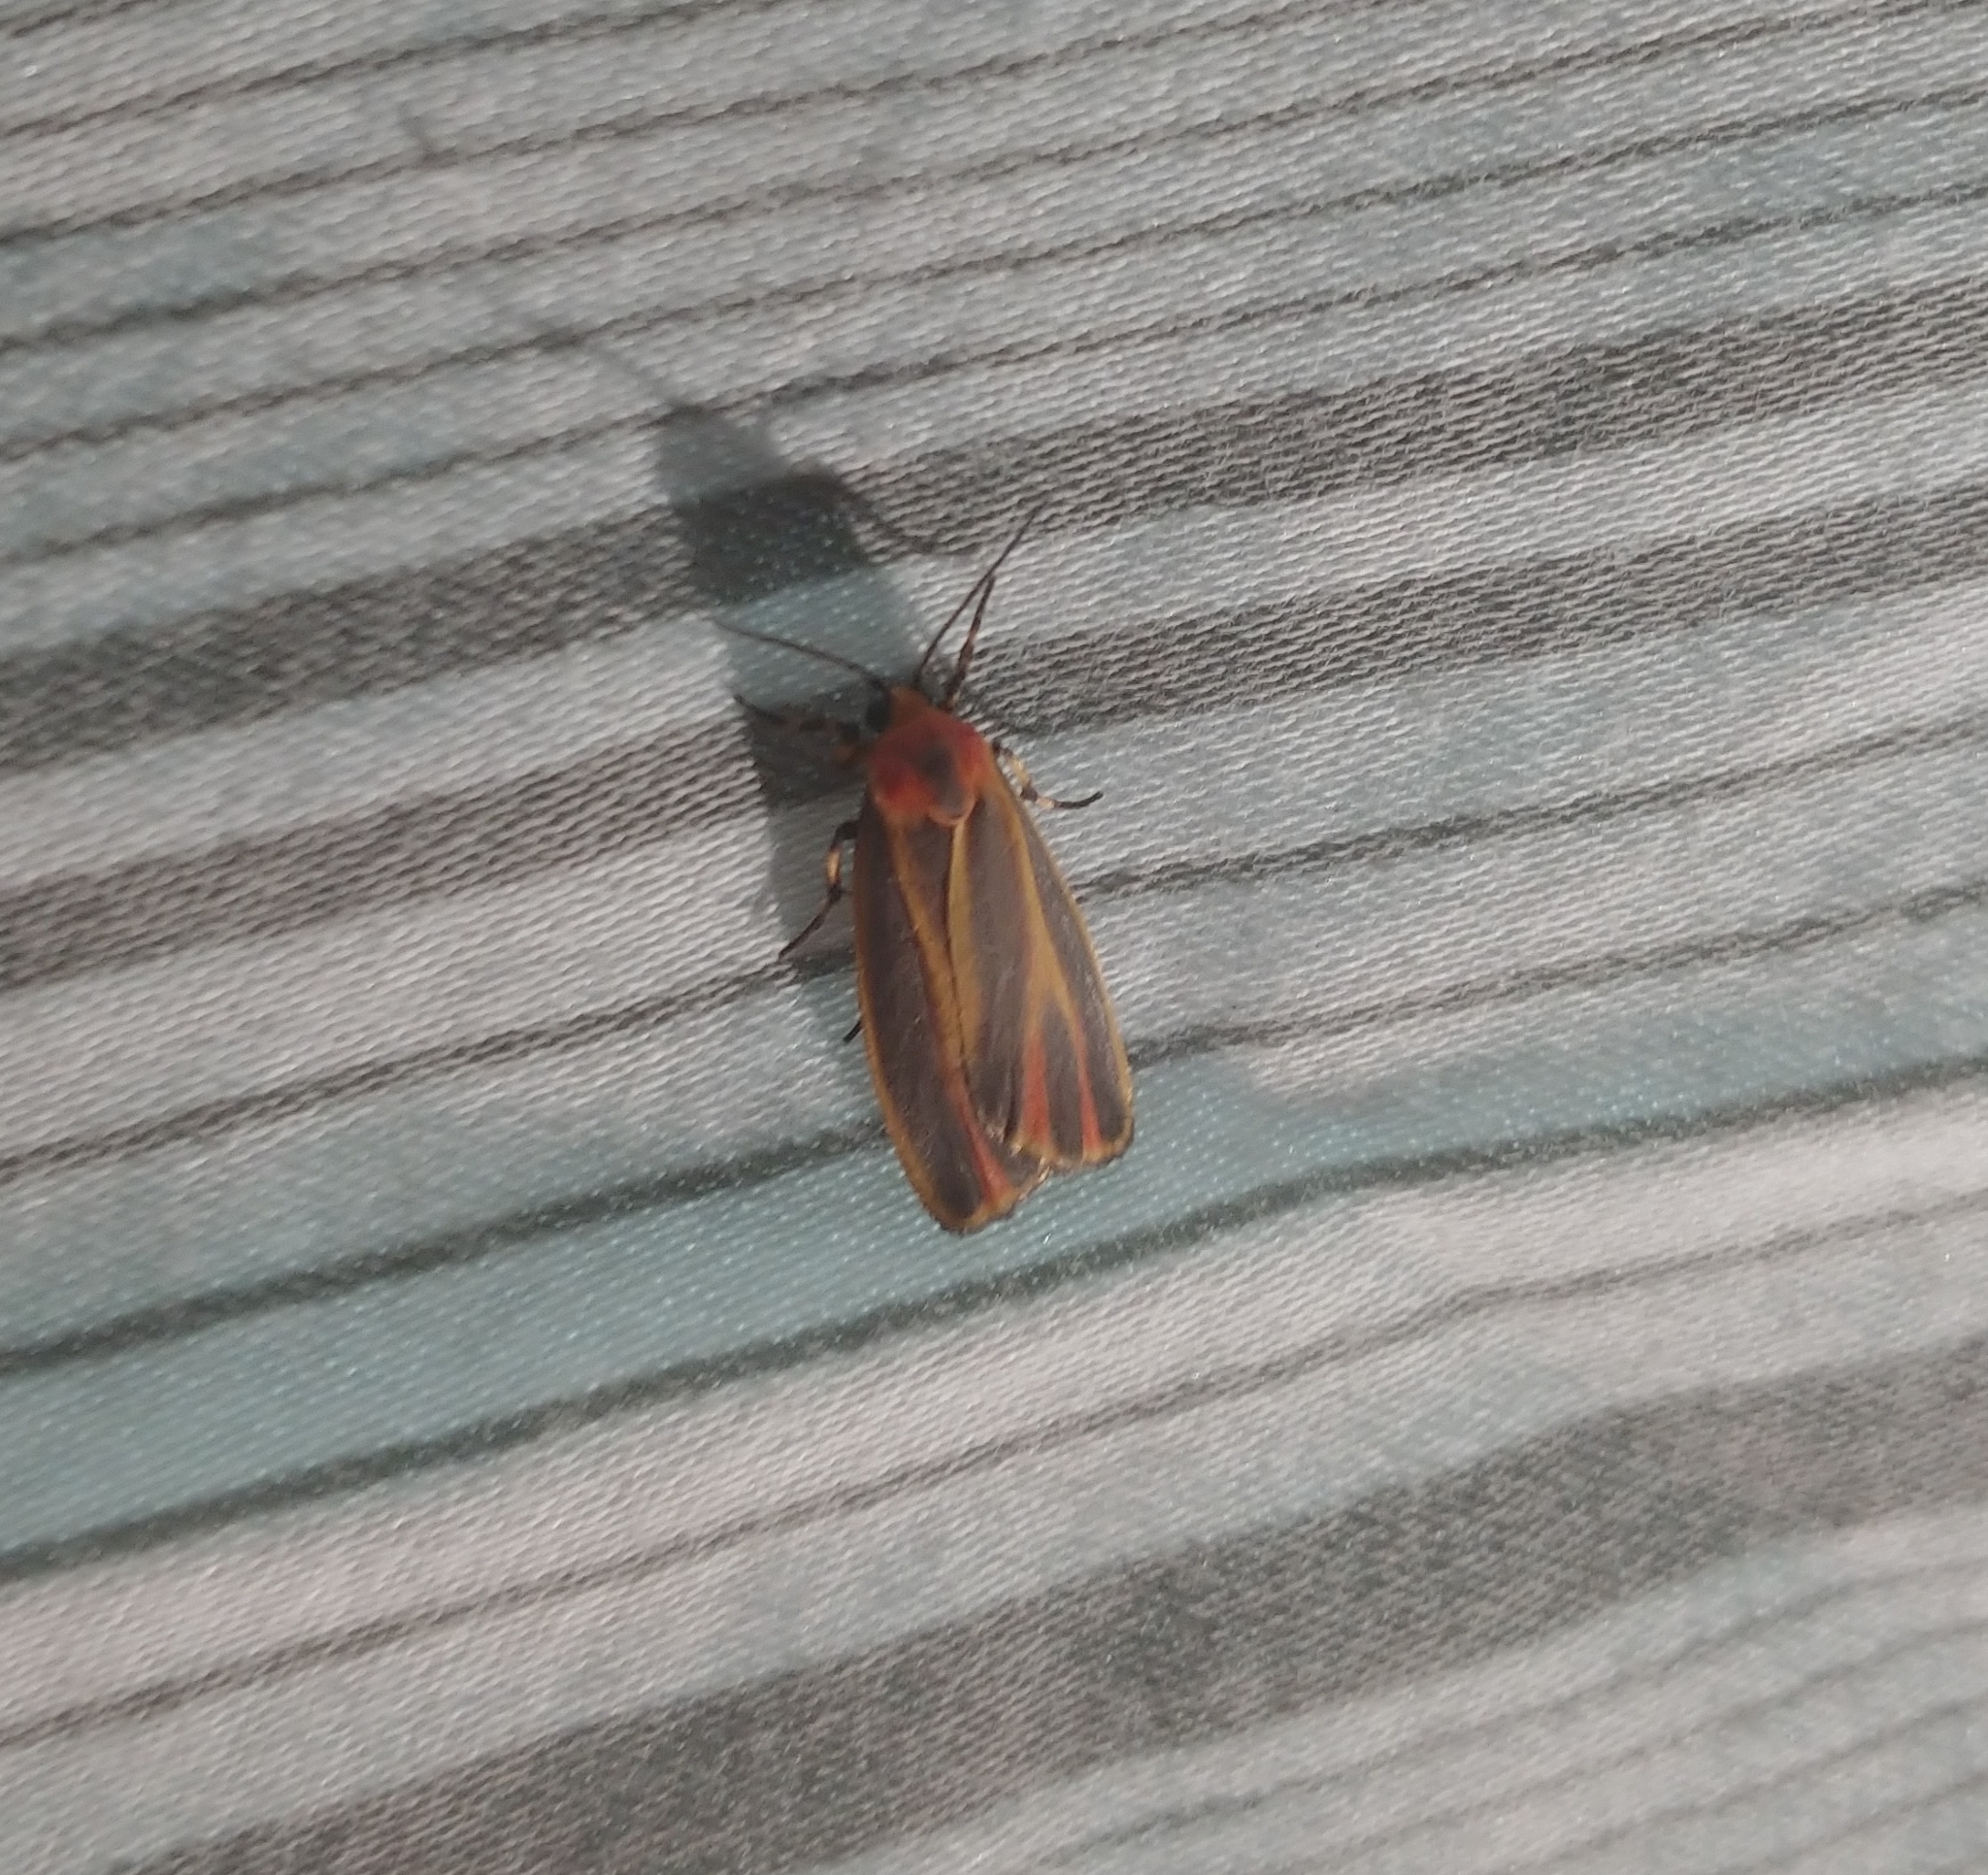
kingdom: Animalia
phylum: Arthropoda
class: Insecta
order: Lepidoptera
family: Erebidae
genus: Hypoprepia
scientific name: Hypoprepia fucosa
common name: Painted lichen moth
